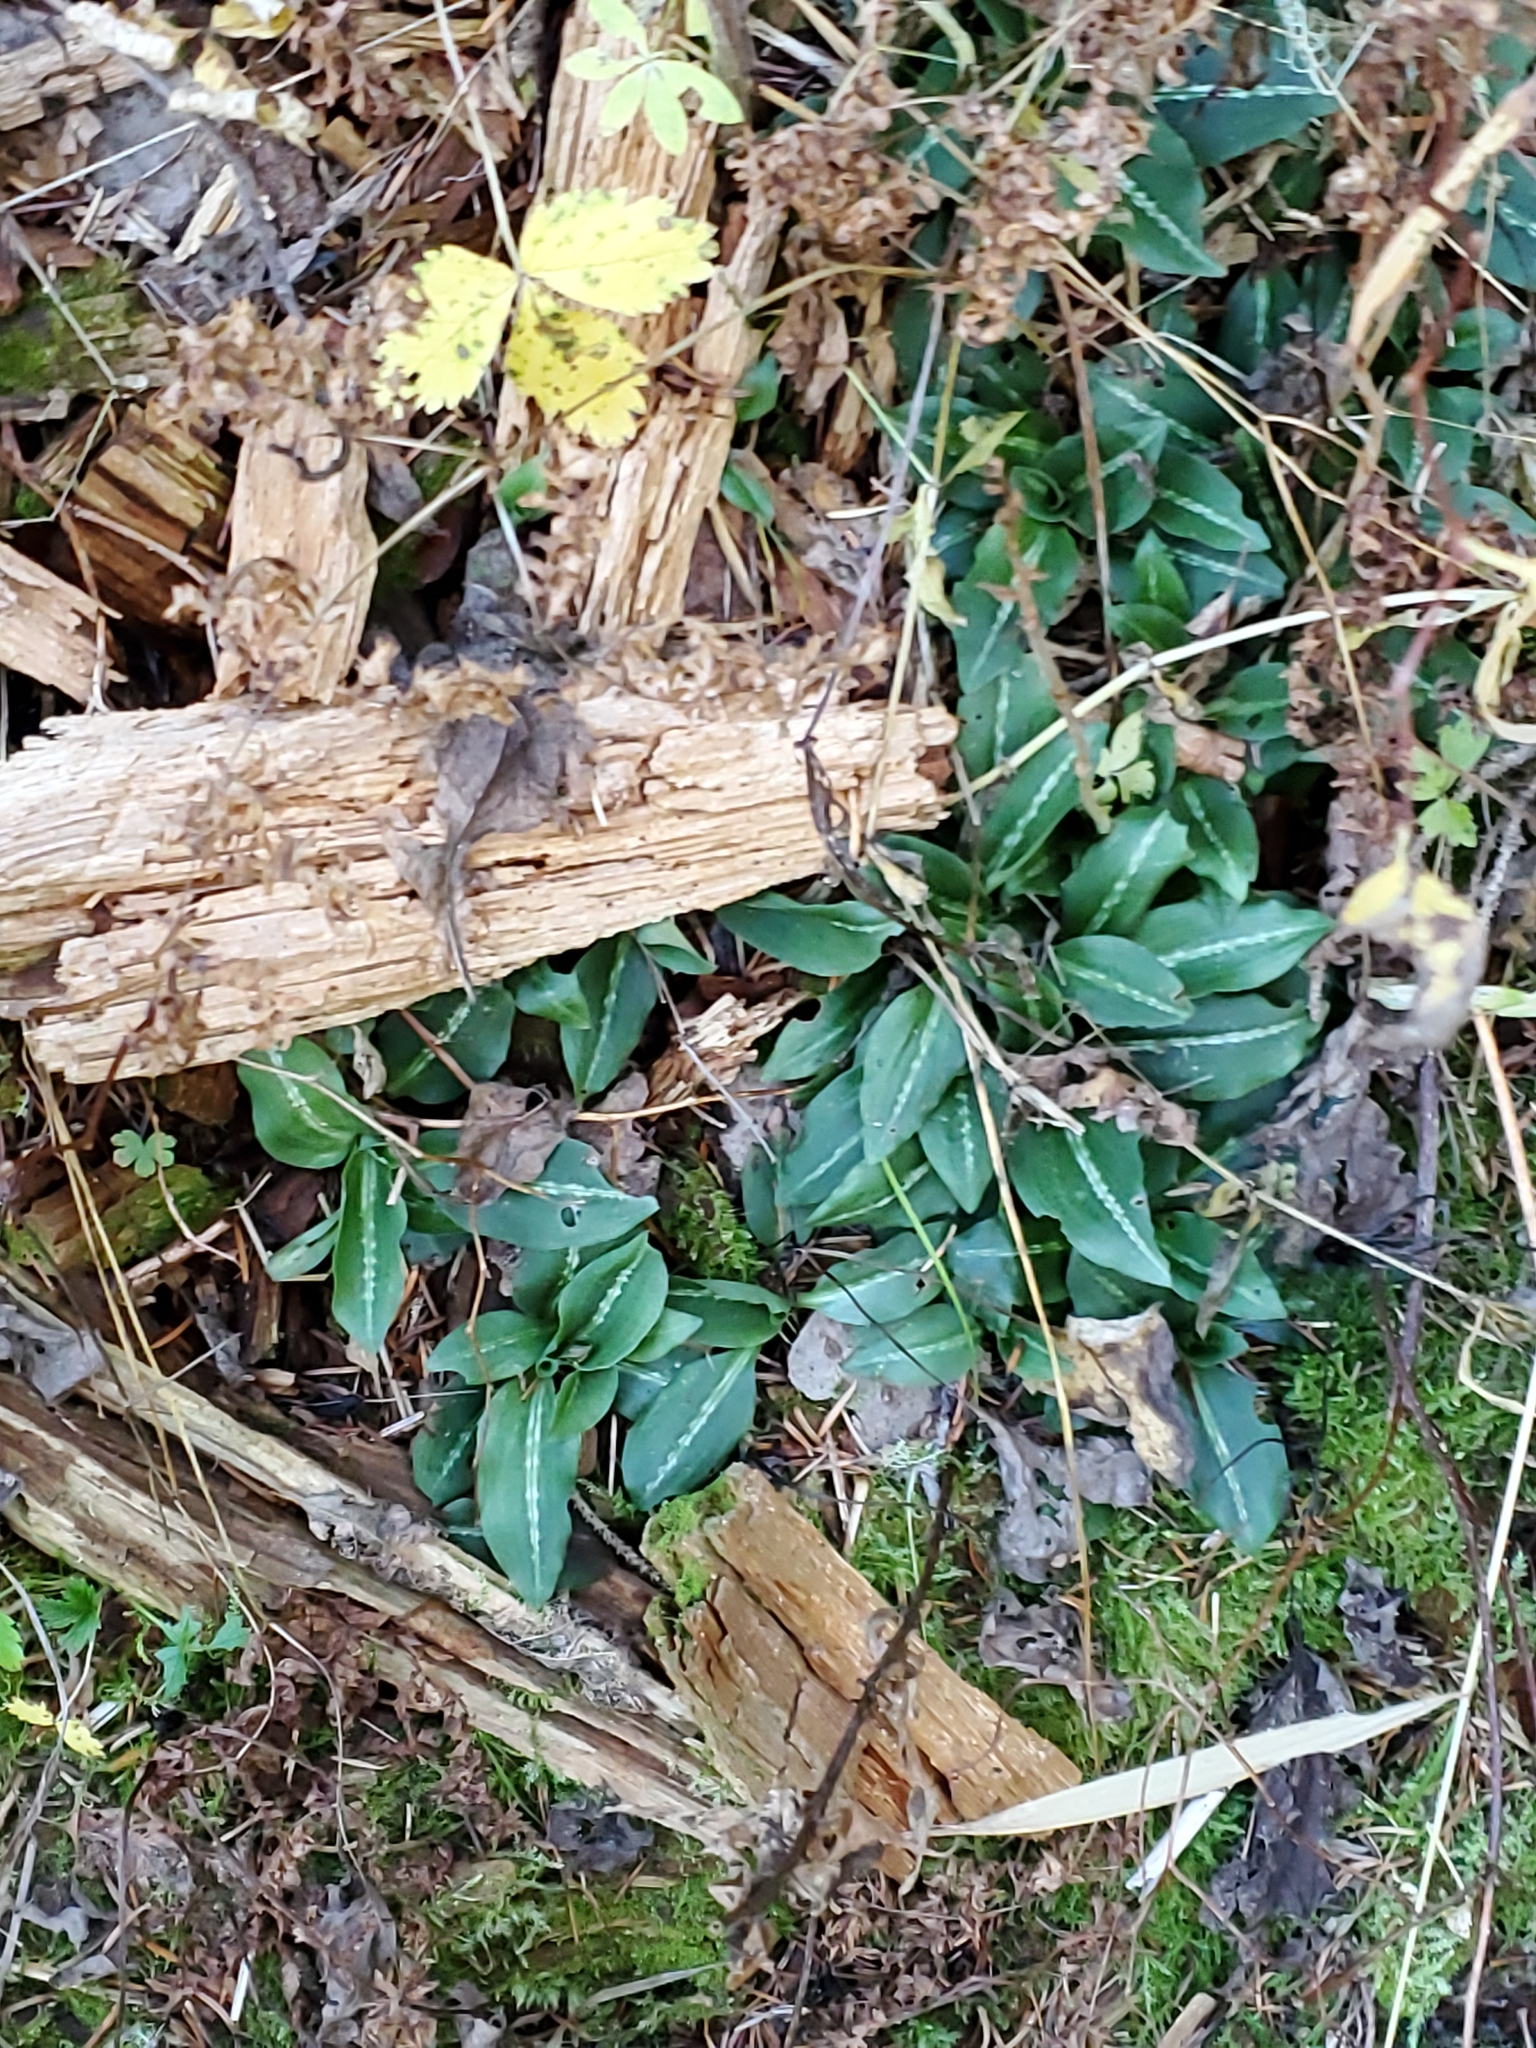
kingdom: Plantae
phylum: Tracheophyta
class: Liliopsida
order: Asparagales
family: Orchidaceae
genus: Goodyera
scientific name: Goodyera oblongifolia
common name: Giant rattlesnake-plantain
